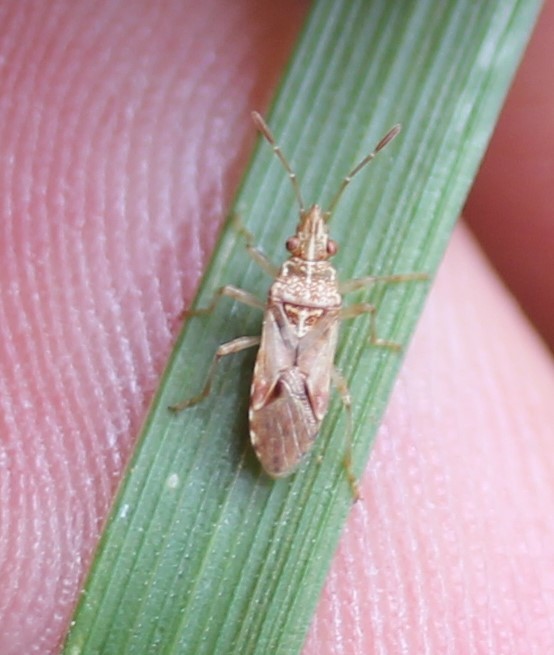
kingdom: Animalia
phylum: Arthropoda
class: Insecta
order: Hemiptera
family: Lygaeidae
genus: Belonochilus
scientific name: Belonochilus numenius
